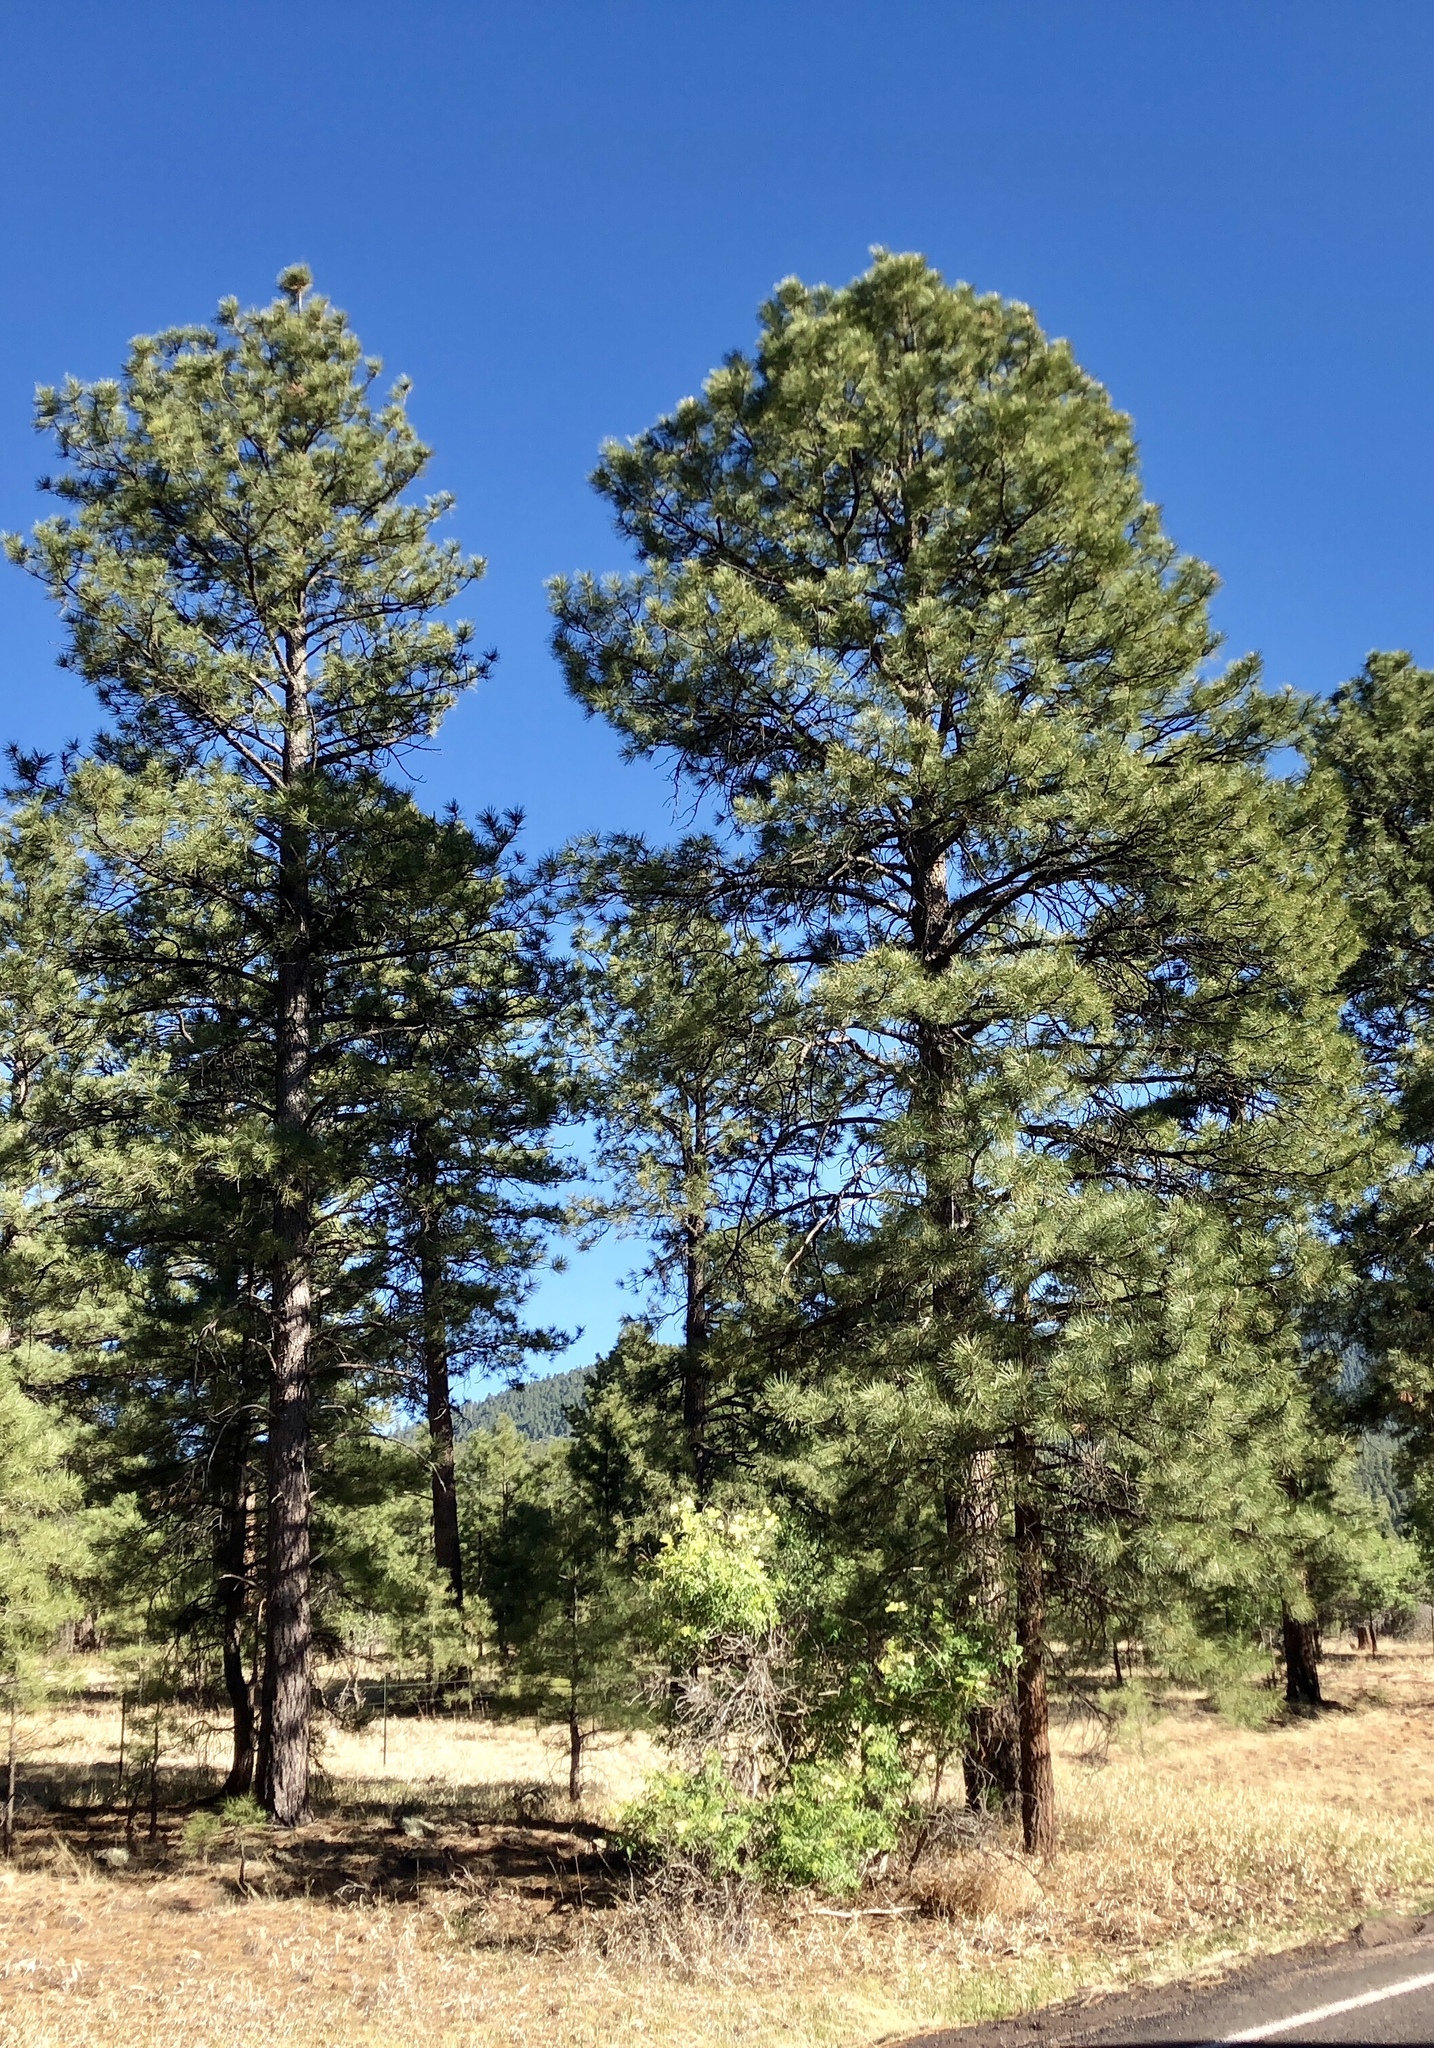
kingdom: Plantae
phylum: Tracheophyta
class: Pinopsida
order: Pinales
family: Pinaceae
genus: Pinus
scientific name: Pinus ponderosa
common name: Western yellow-pine
